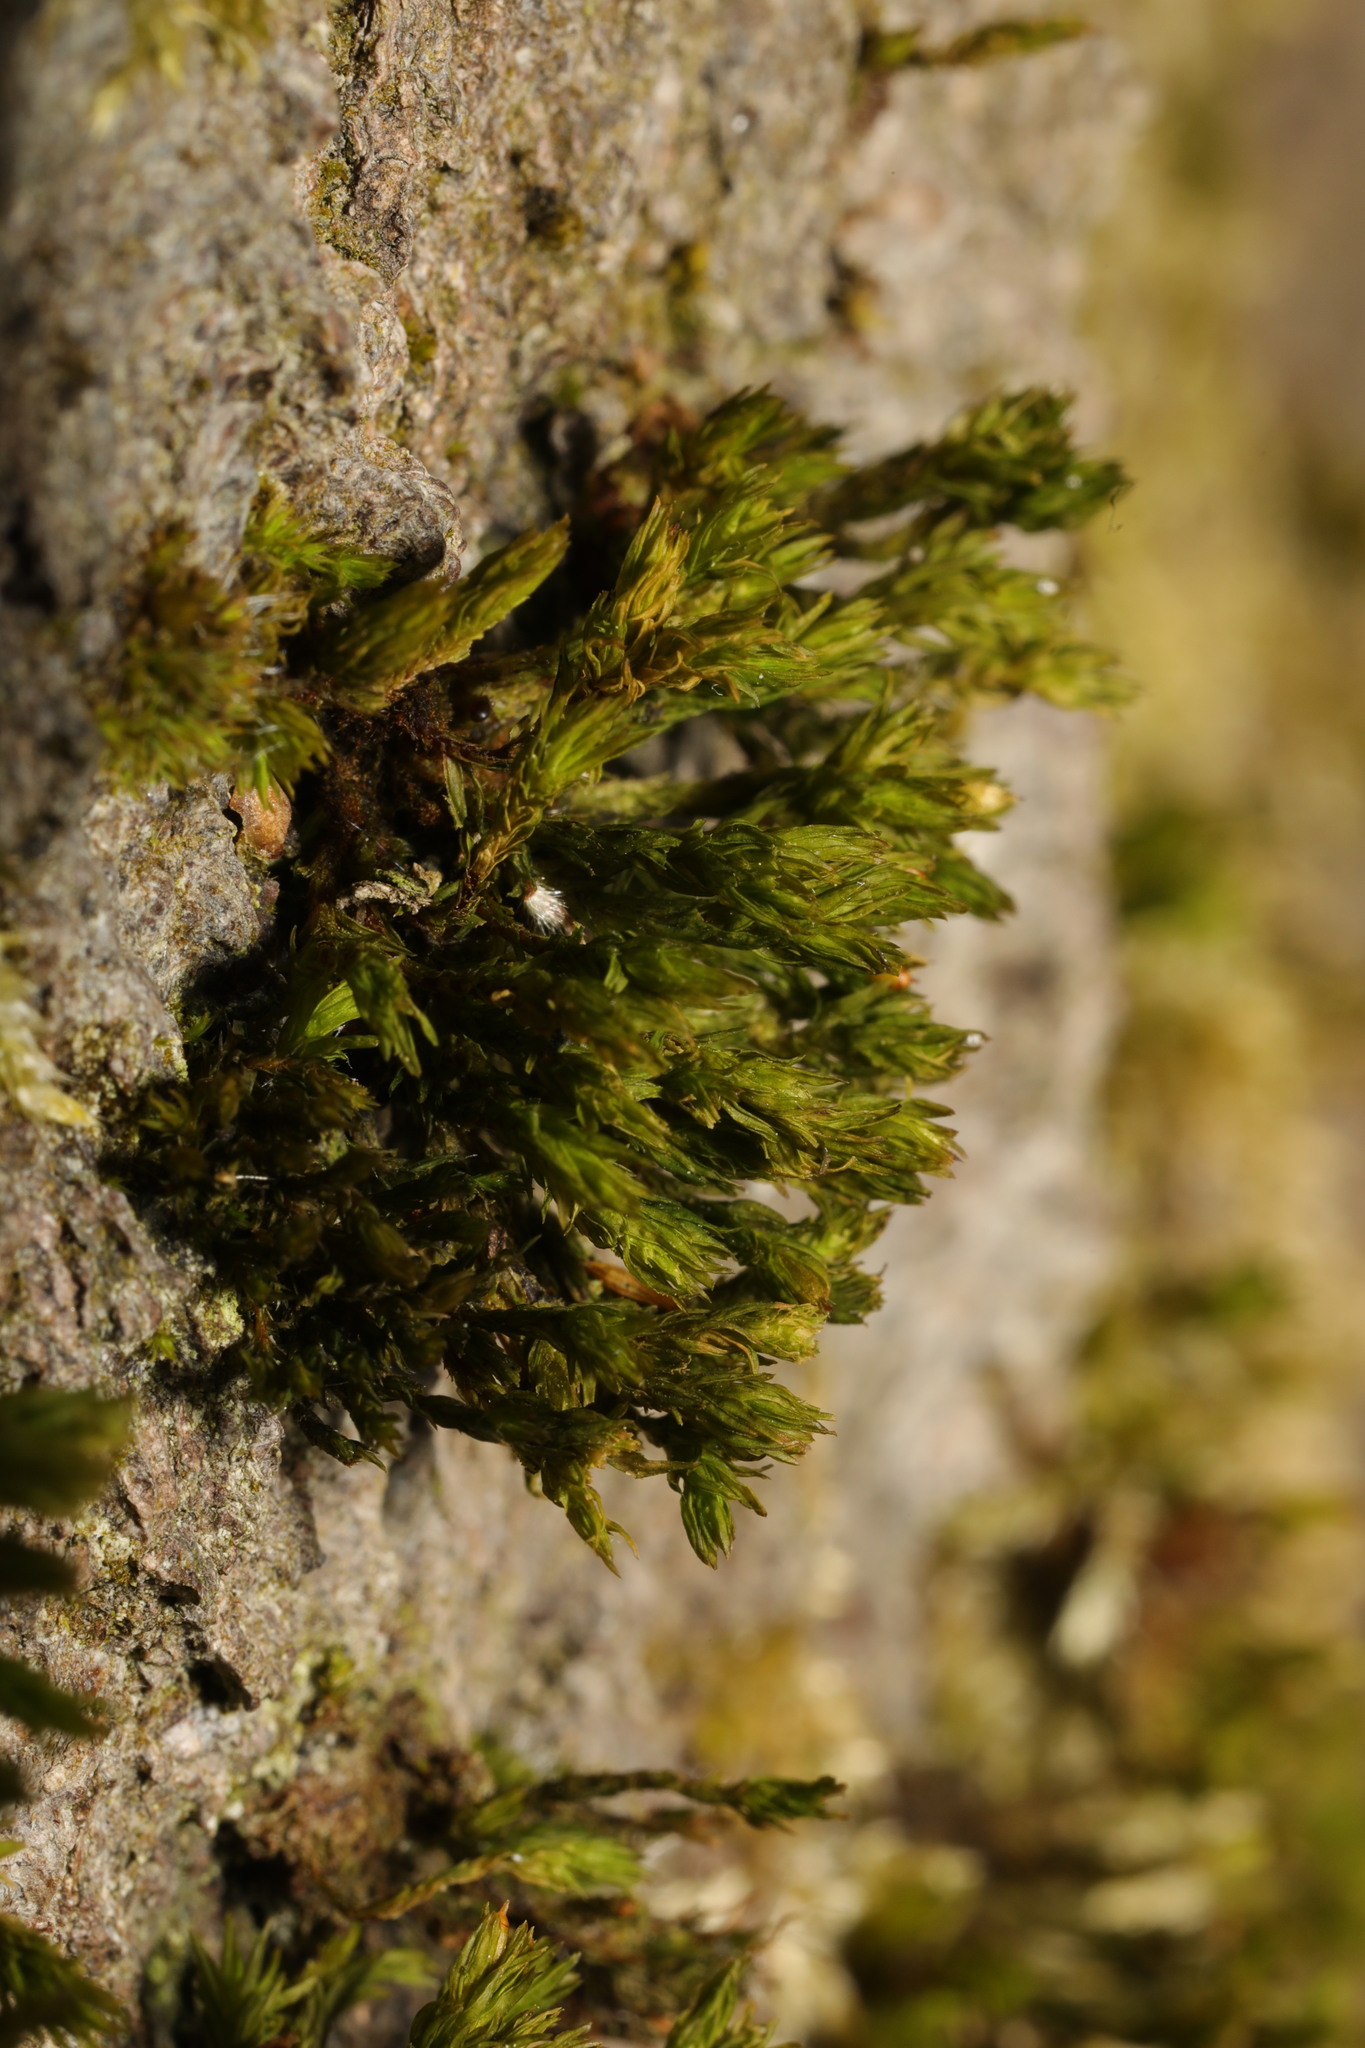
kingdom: Plantae
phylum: Bryophyta
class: Bryopsida
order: Orthotrichales
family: Orthotrichaceae
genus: Lewinskya
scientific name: Lewinskya affinis
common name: Wood bristle-moss
